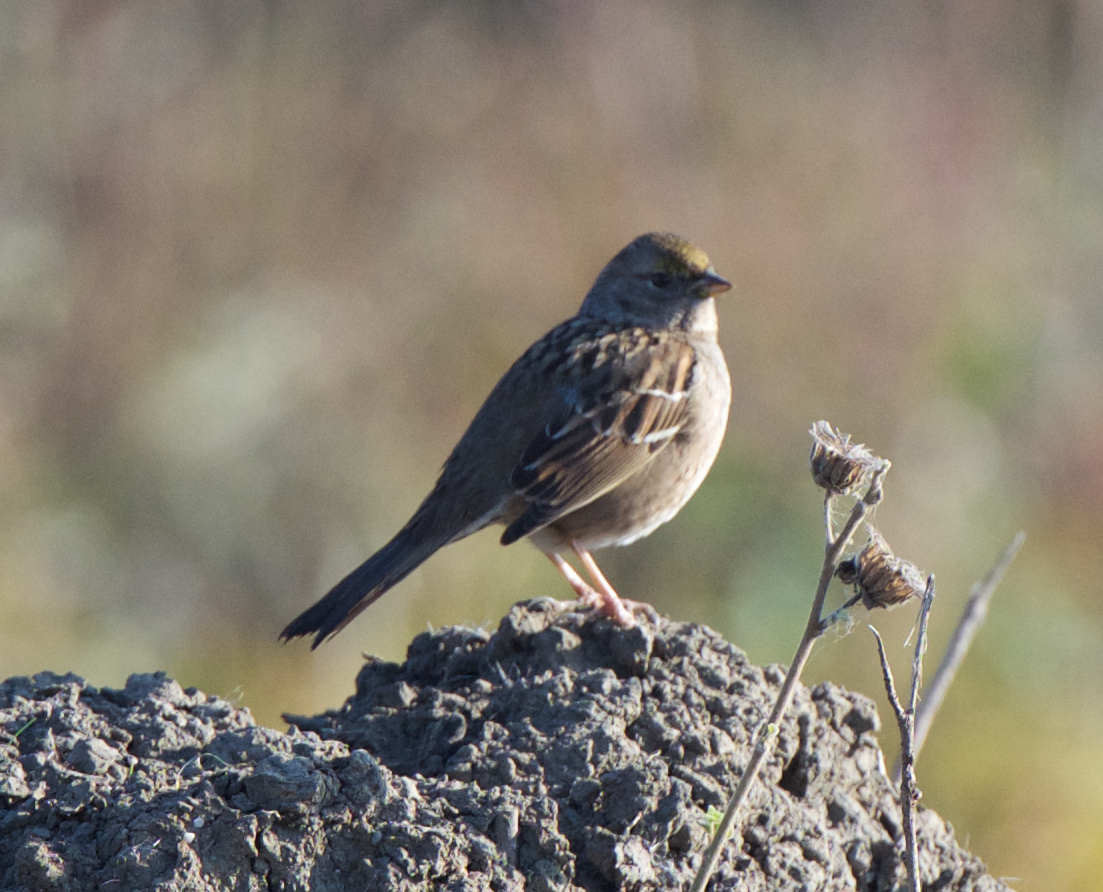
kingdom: Animalia
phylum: Chordata
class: Aves
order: Passeriformes
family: Passerellidae
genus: Zonotrichia
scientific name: Zonotrichia atricapilla
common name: Golden-crowned sparrow
